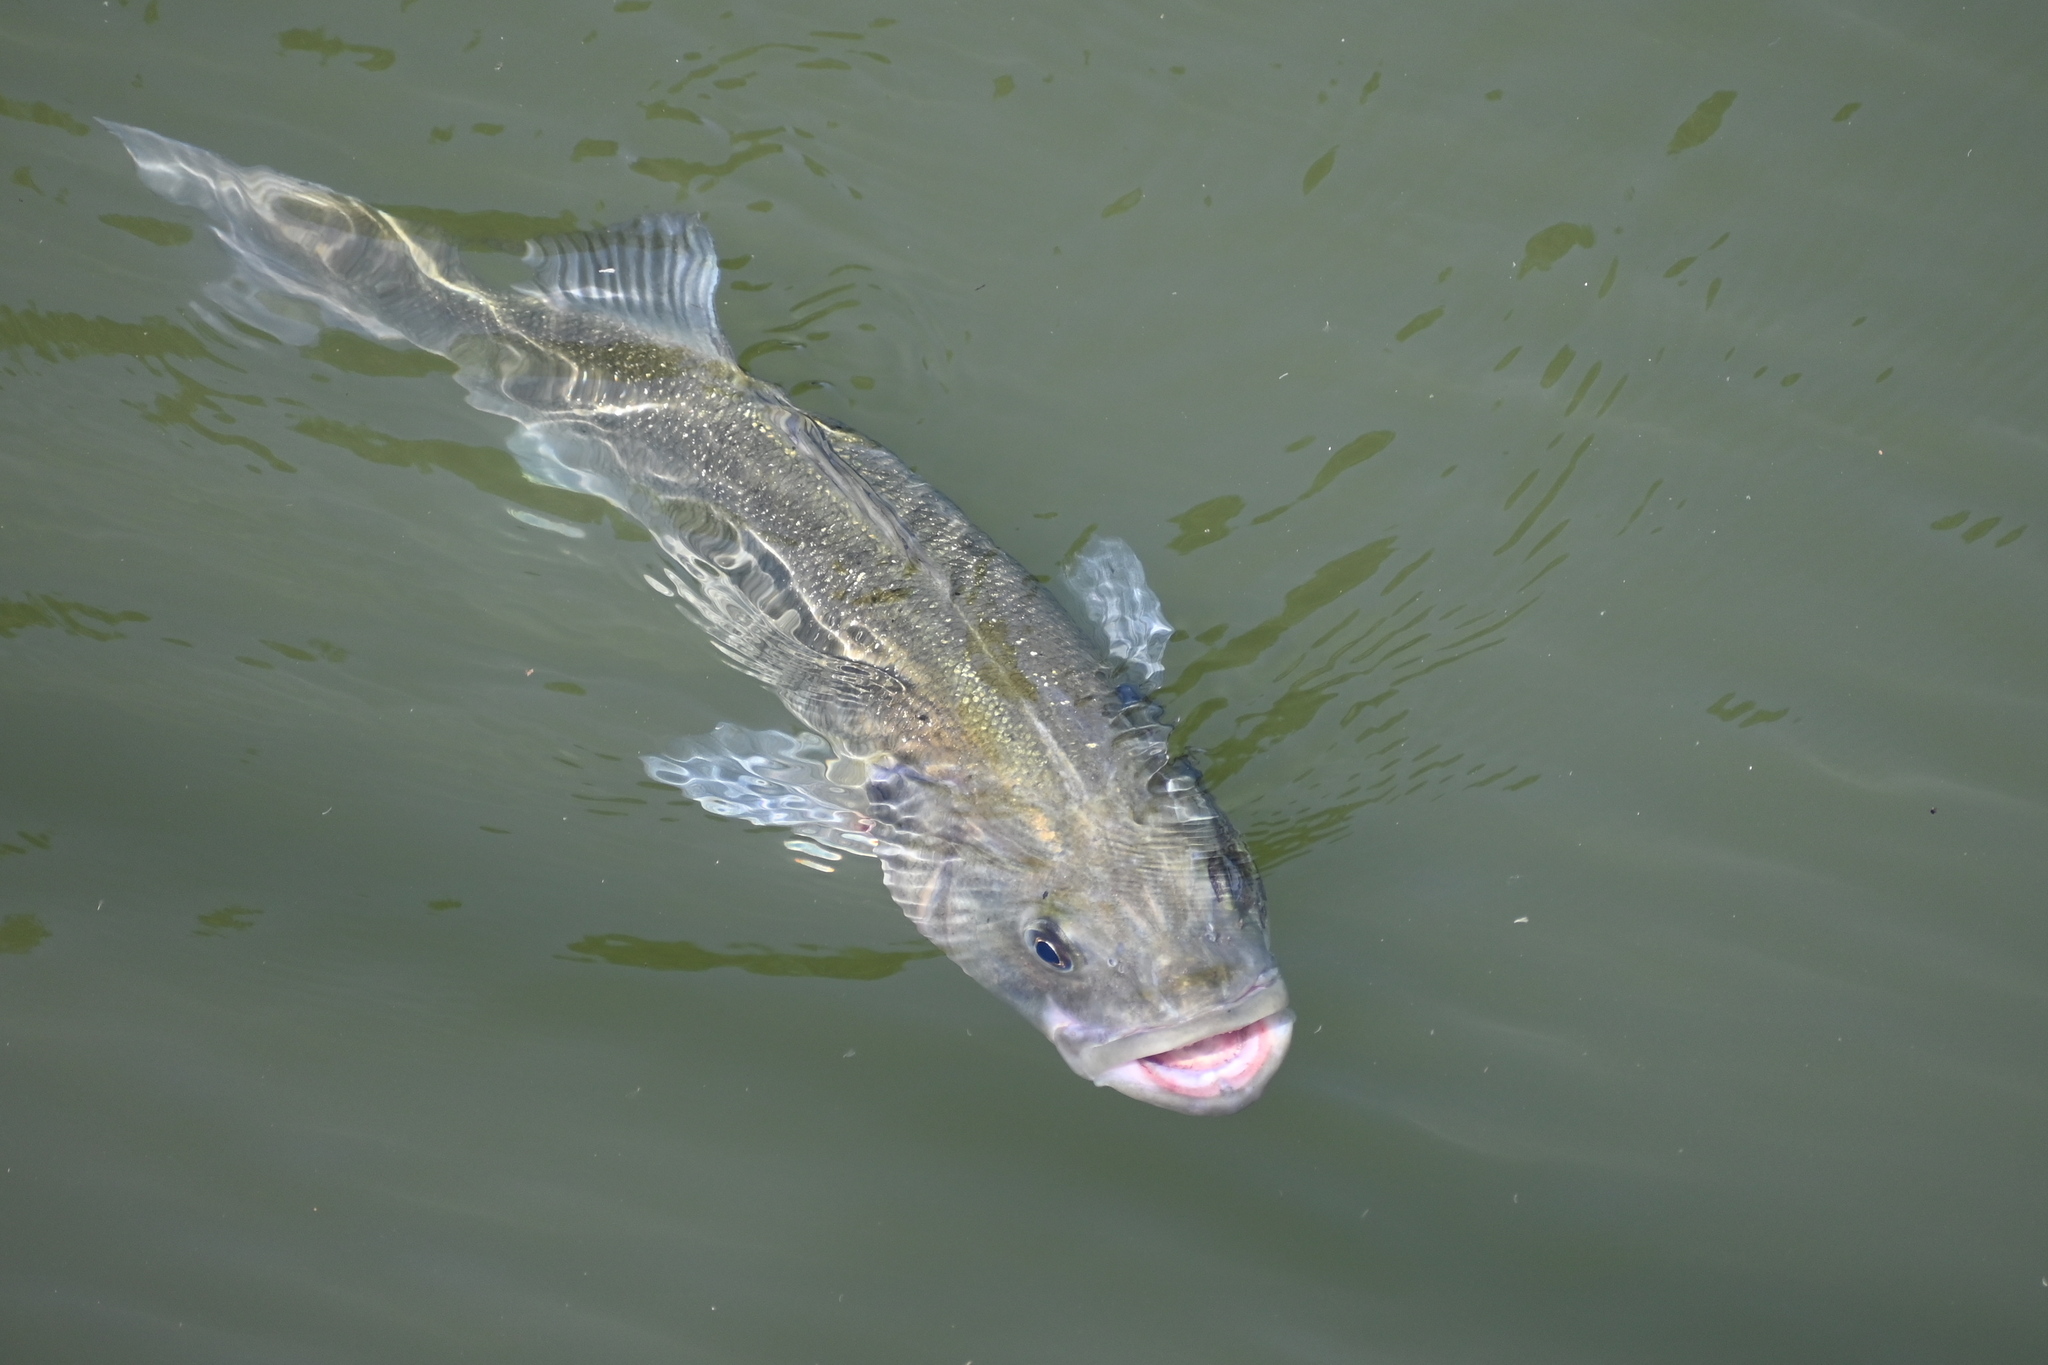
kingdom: Animalia
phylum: Chordata
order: Perciformes
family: Moronidae
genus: Dicentrarchus
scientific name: Dicentrarchus labrax
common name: European seabass
